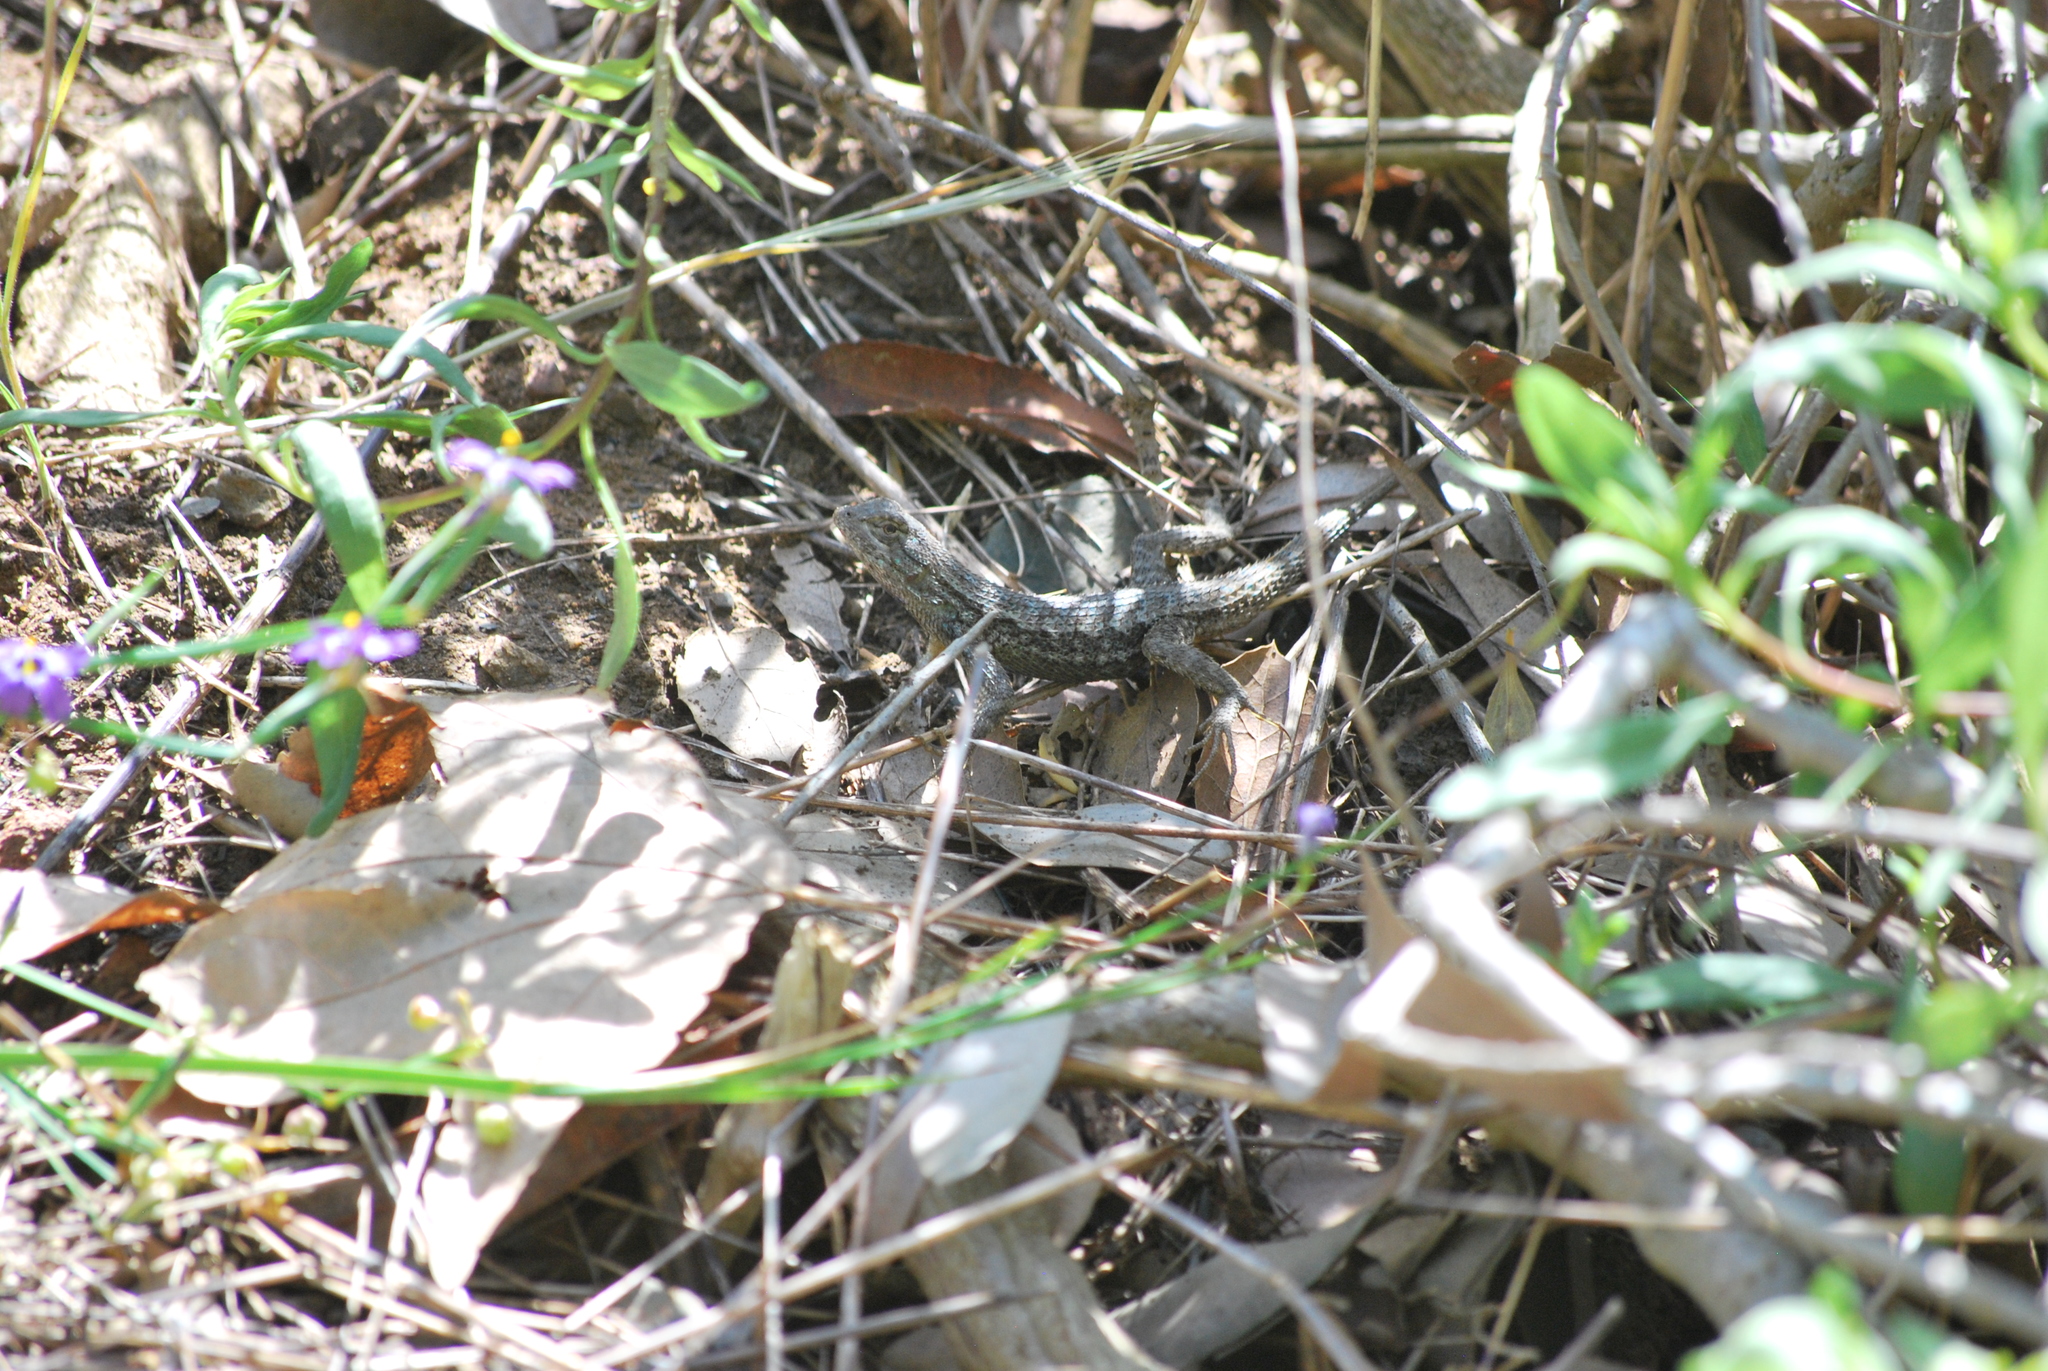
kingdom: Animalia
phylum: Chordata
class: Squamata
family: Phrynosomatidae
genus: Sceloporus
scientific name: Sceloporus occidentalis
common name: Western fence lizard
